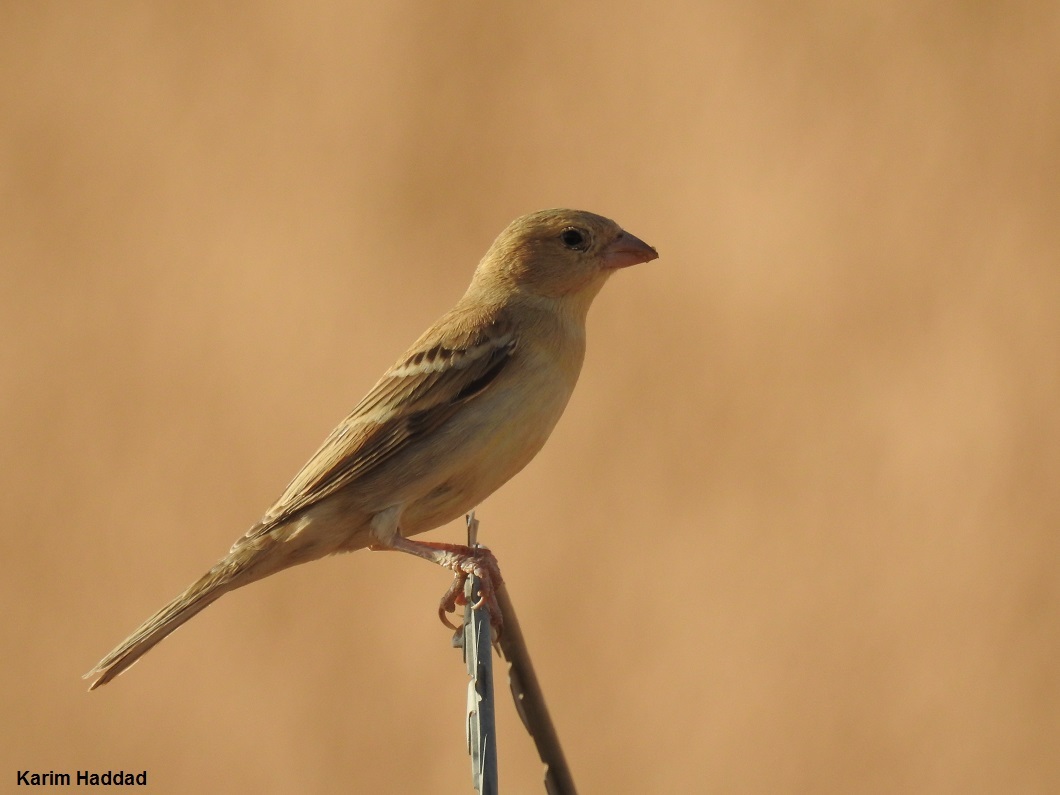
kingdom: Animalia
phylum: Chordata
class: Aves
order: Passeriformes
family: Passeridae
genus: Passer
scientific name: Passer luteus
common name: Sudan golden sparrow
